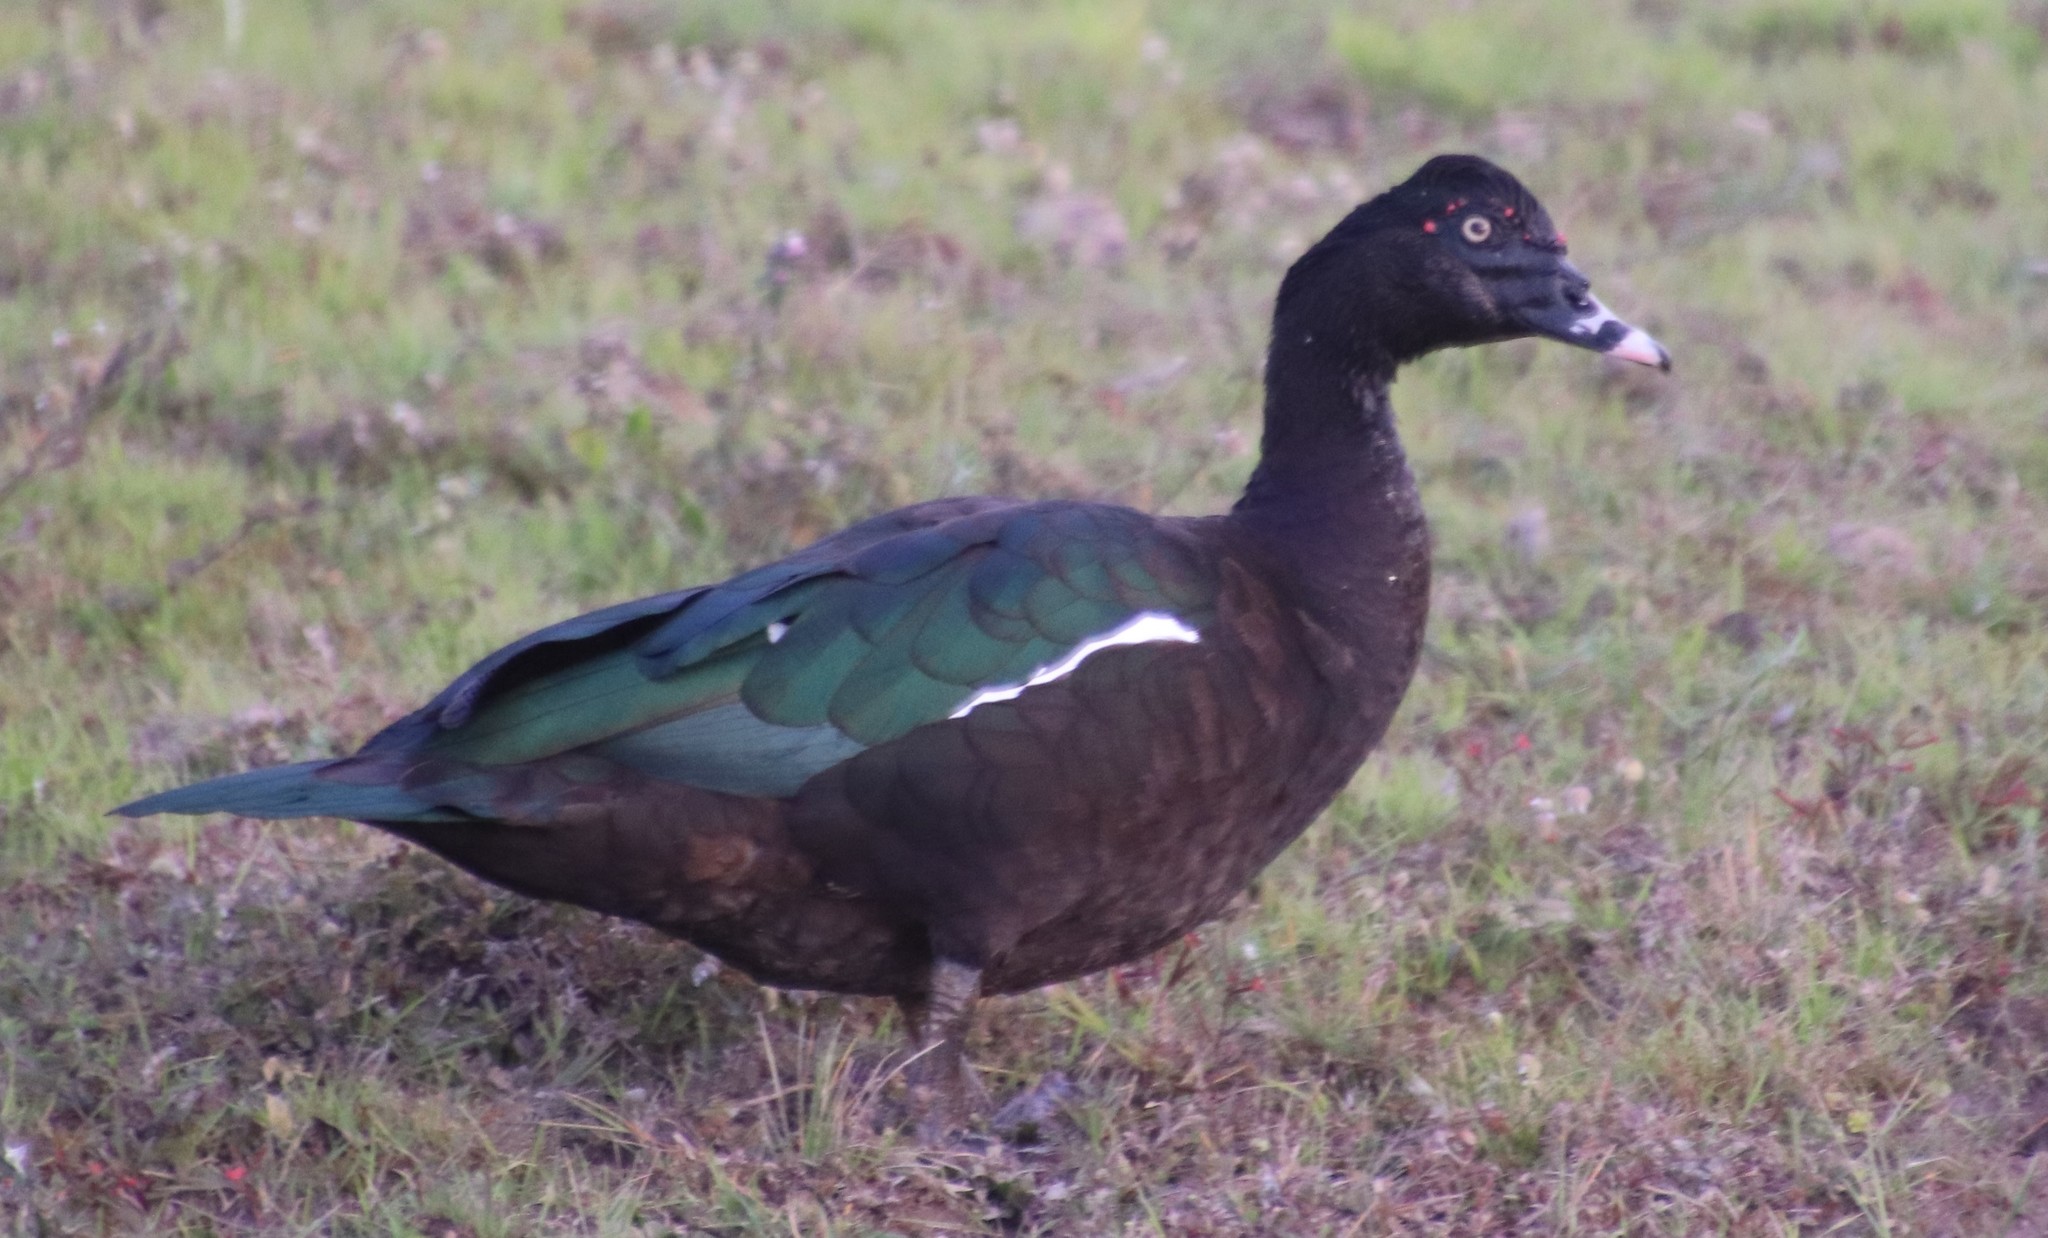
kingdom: Animalia
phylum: Chordata
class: Aves
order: Anseriformes
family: Anatidae
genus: Cairina
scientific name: Cairina moschata
